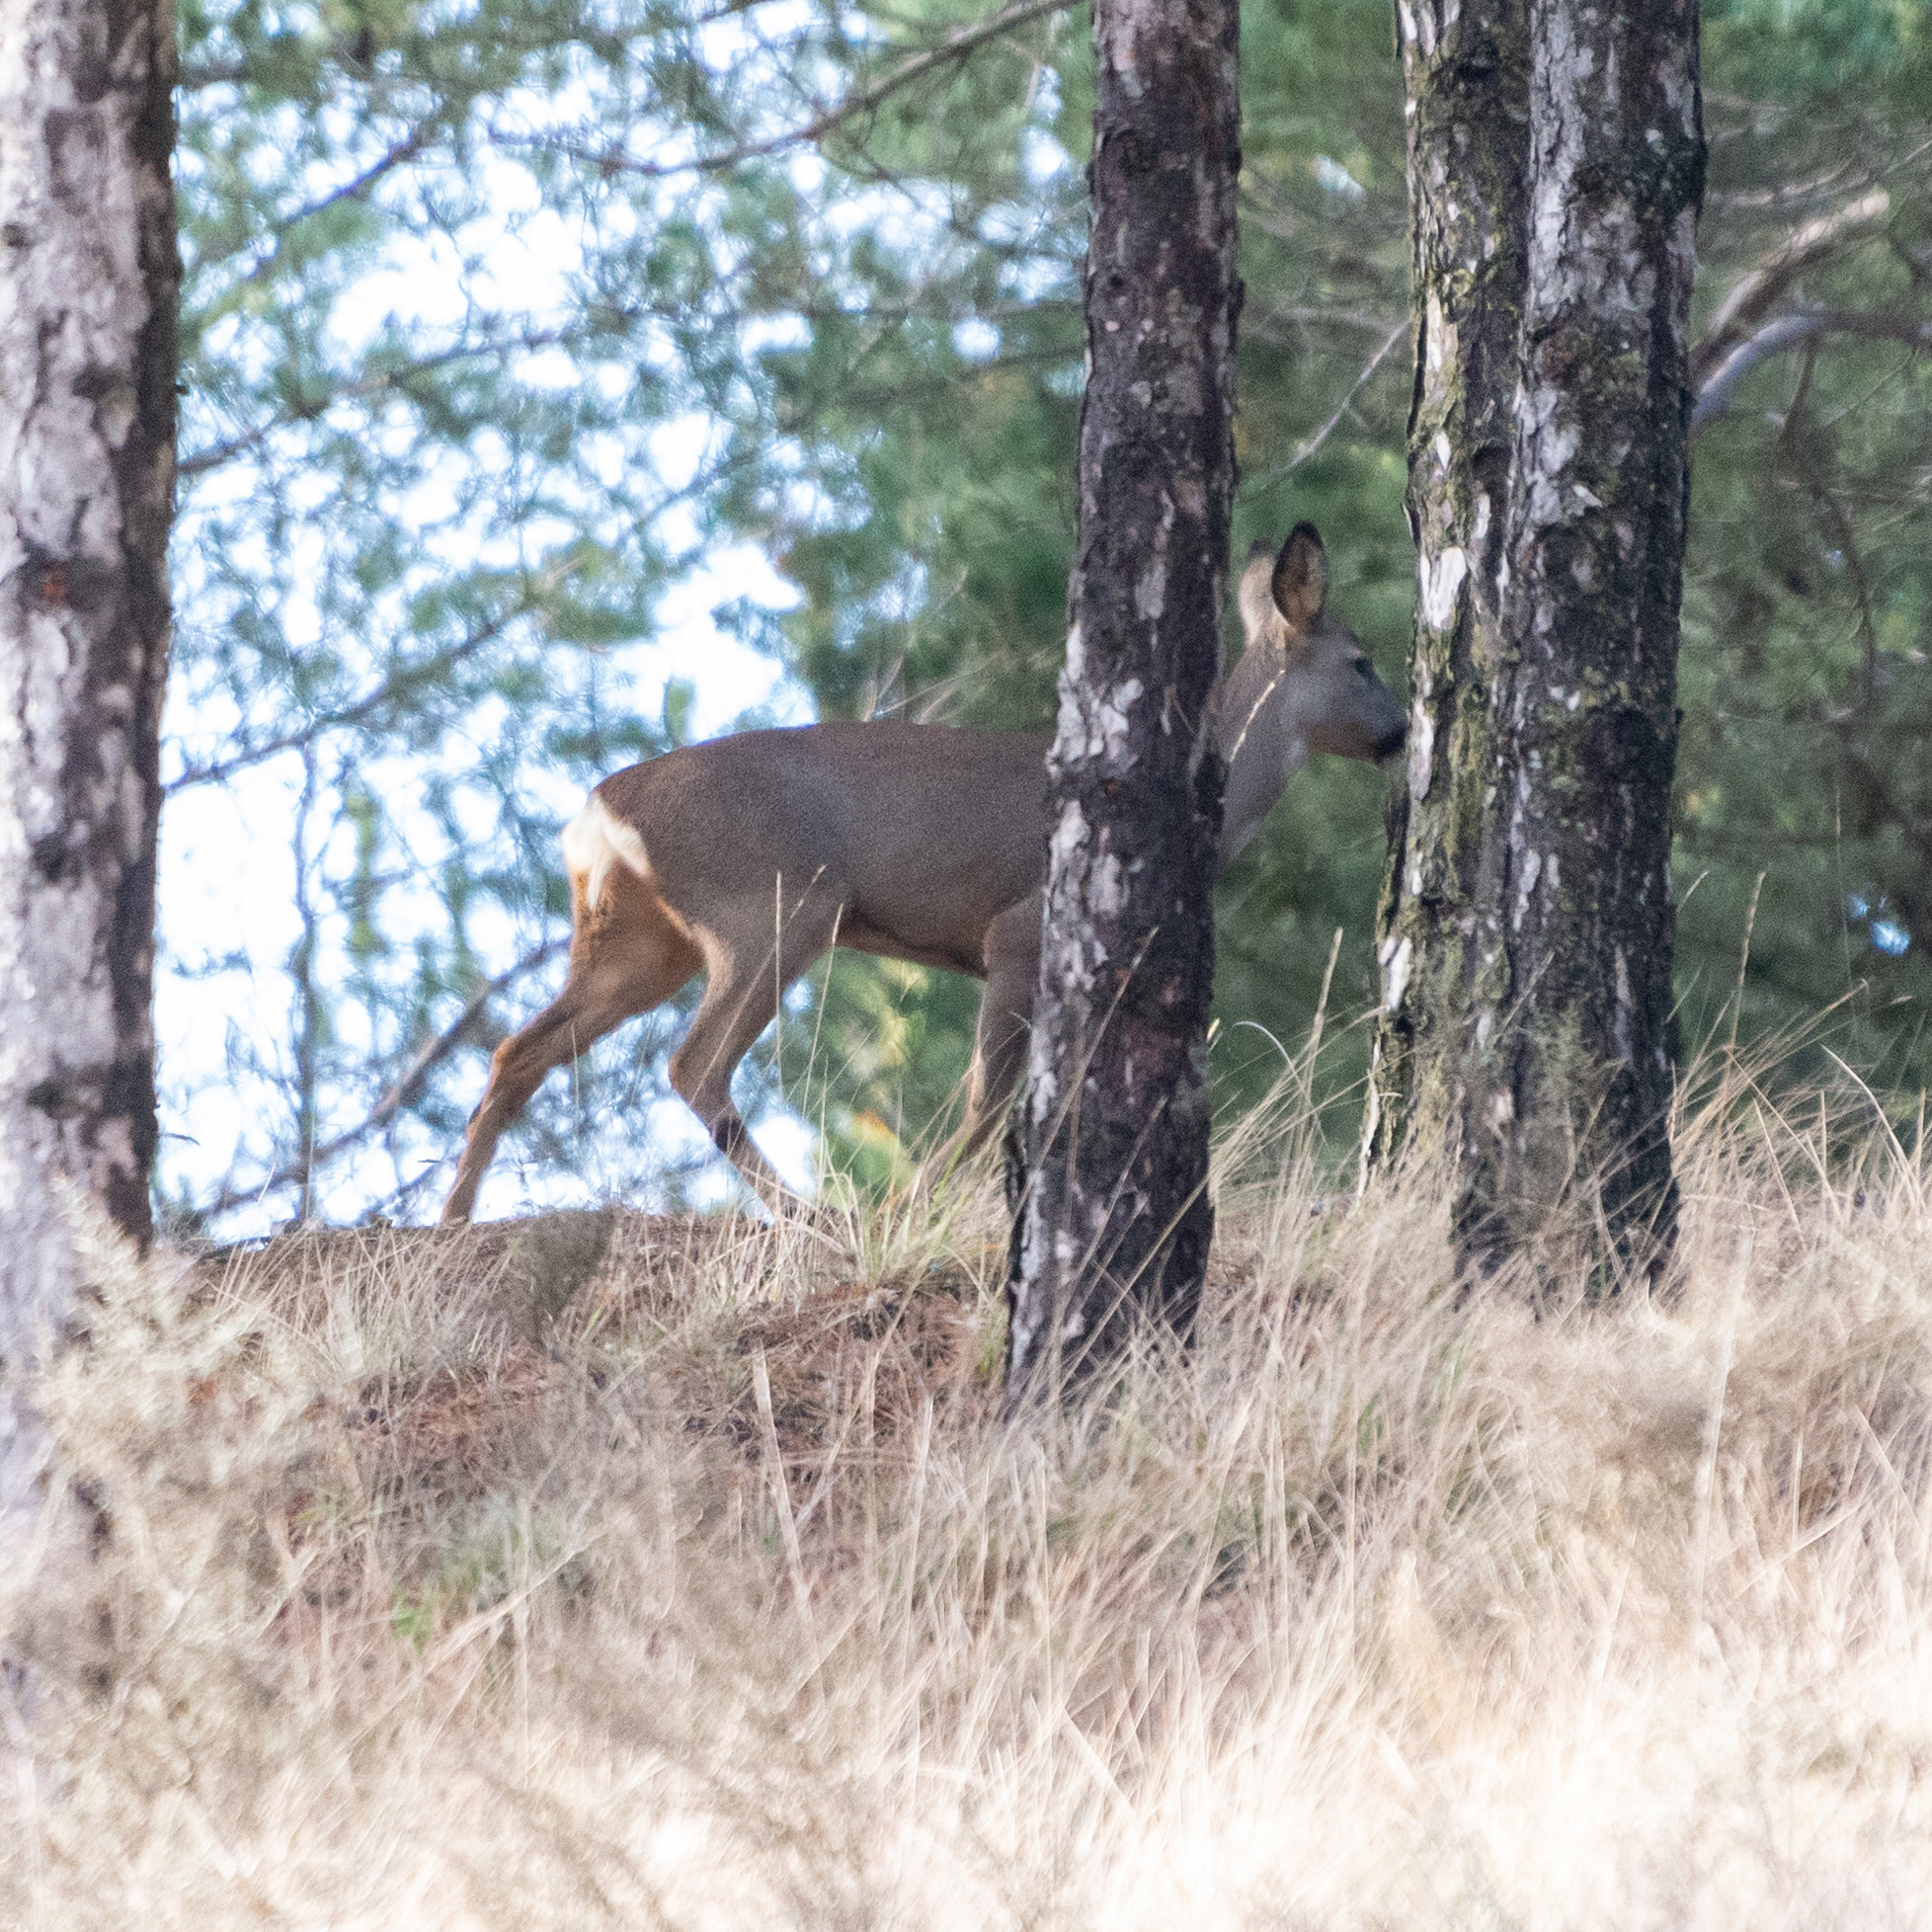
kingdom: Animalia
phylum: Chordata
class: Mammalia
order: Artiodactyla
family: Cervidae
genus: Capreolus
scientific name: Capreolus capreolus
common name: Western roe deer
